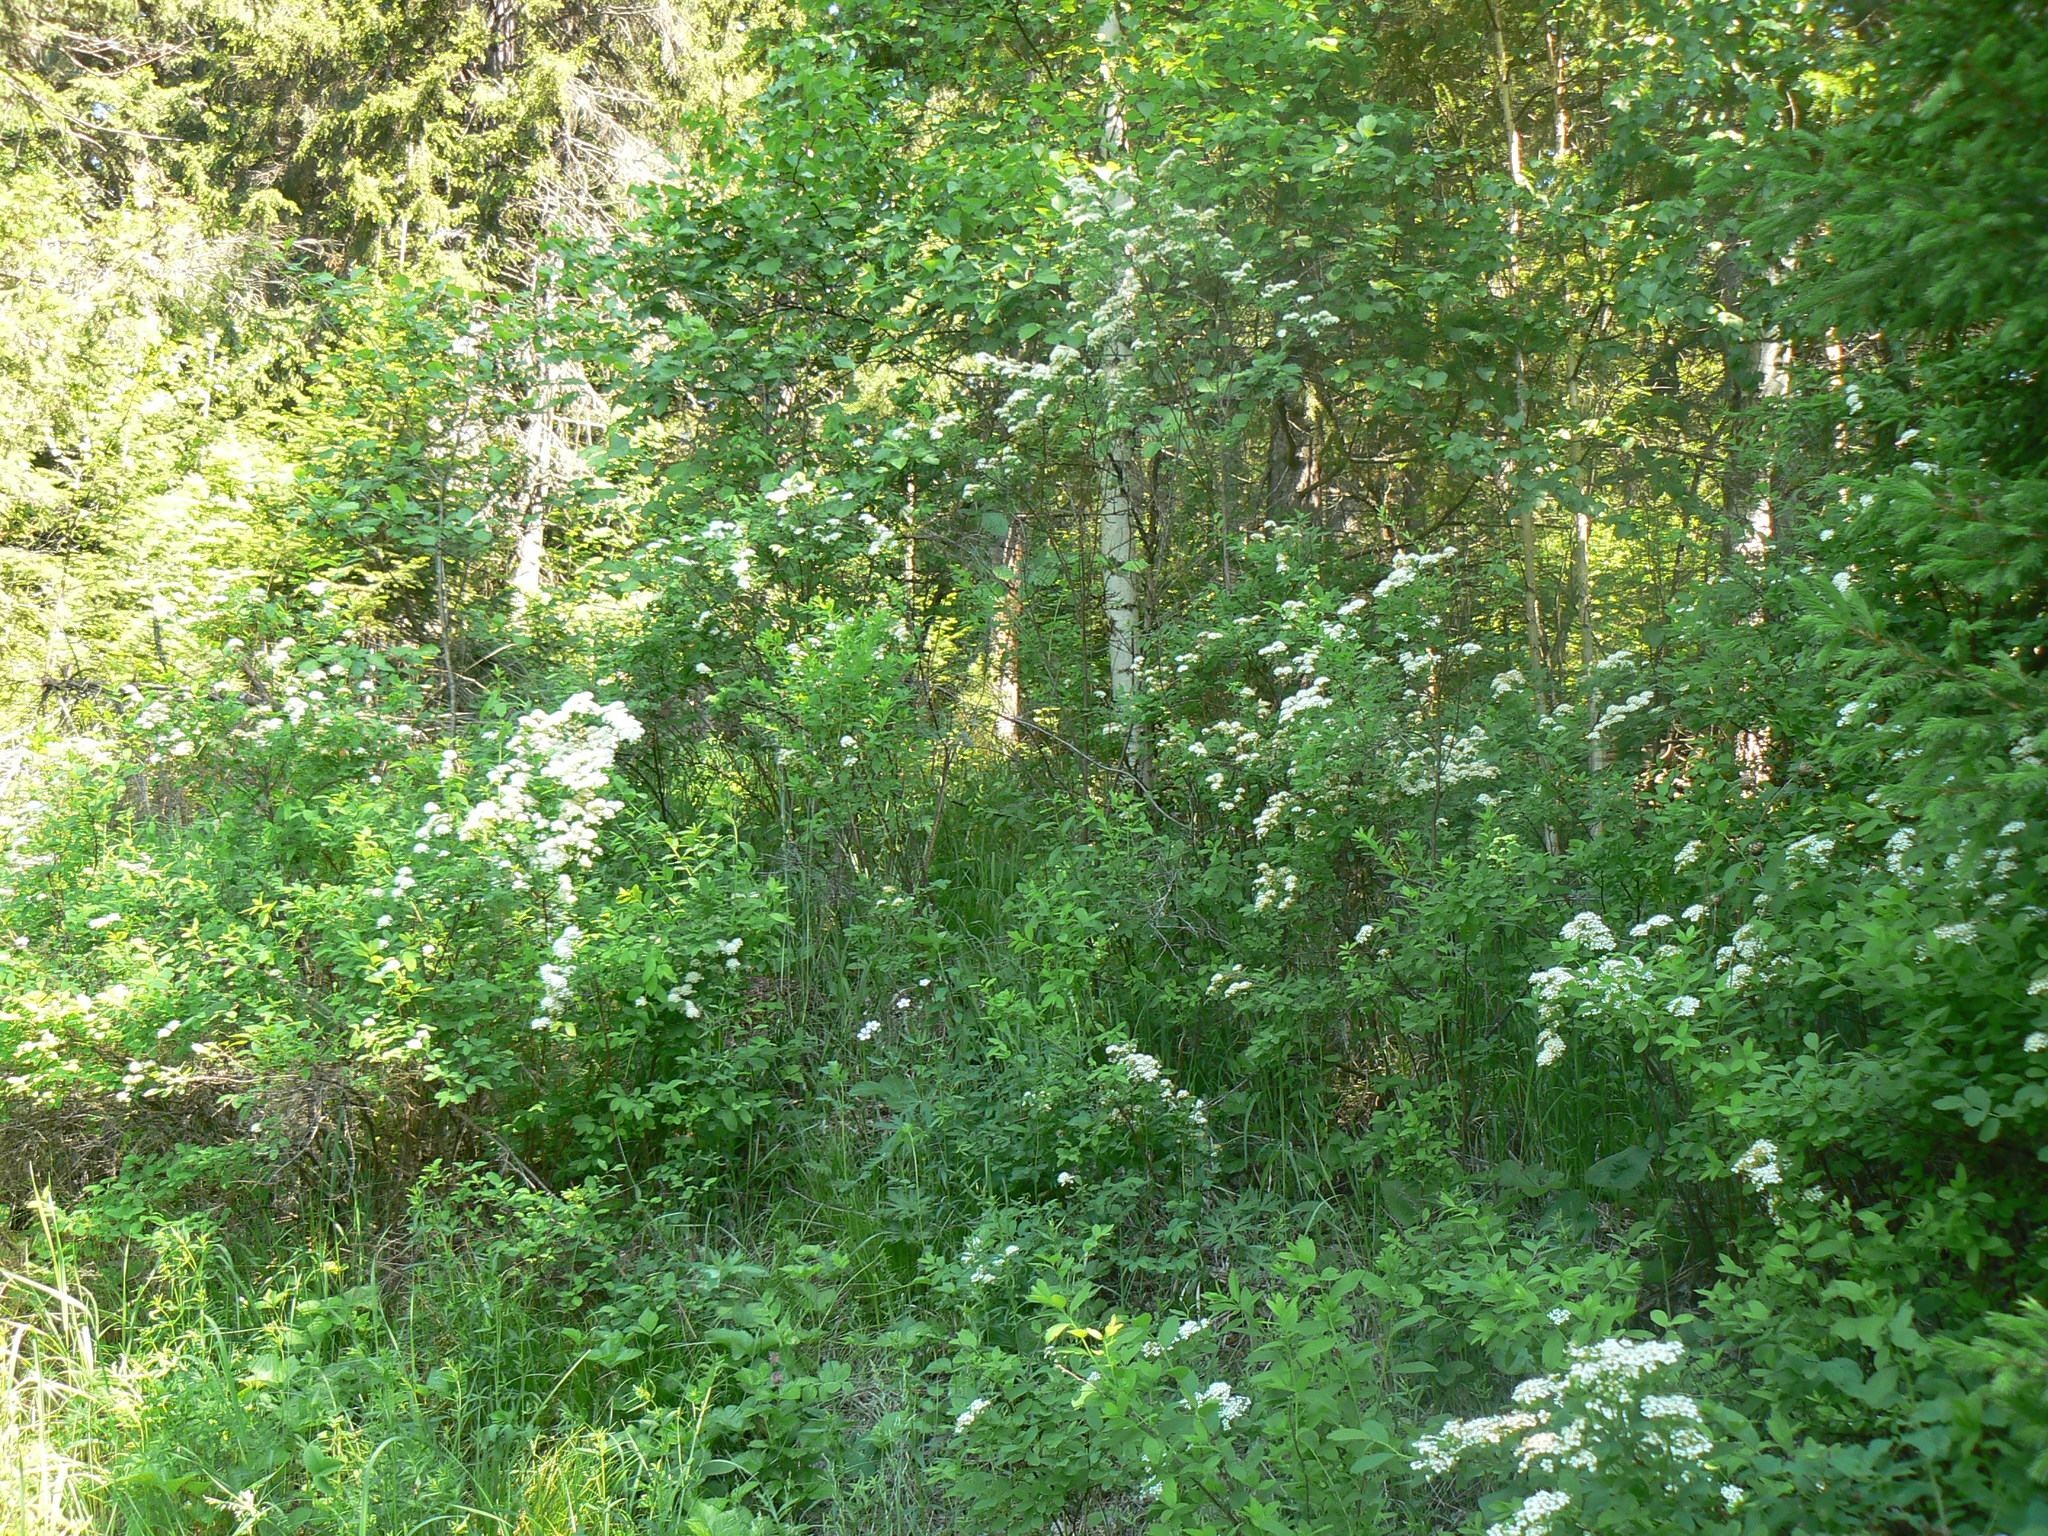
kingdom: Plantae
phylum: Tracheophyta
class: Magnoliopsida
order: Rosales
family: Rosaceae
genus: Spiraea
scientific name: Spiraea media
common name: Russian spiraea
